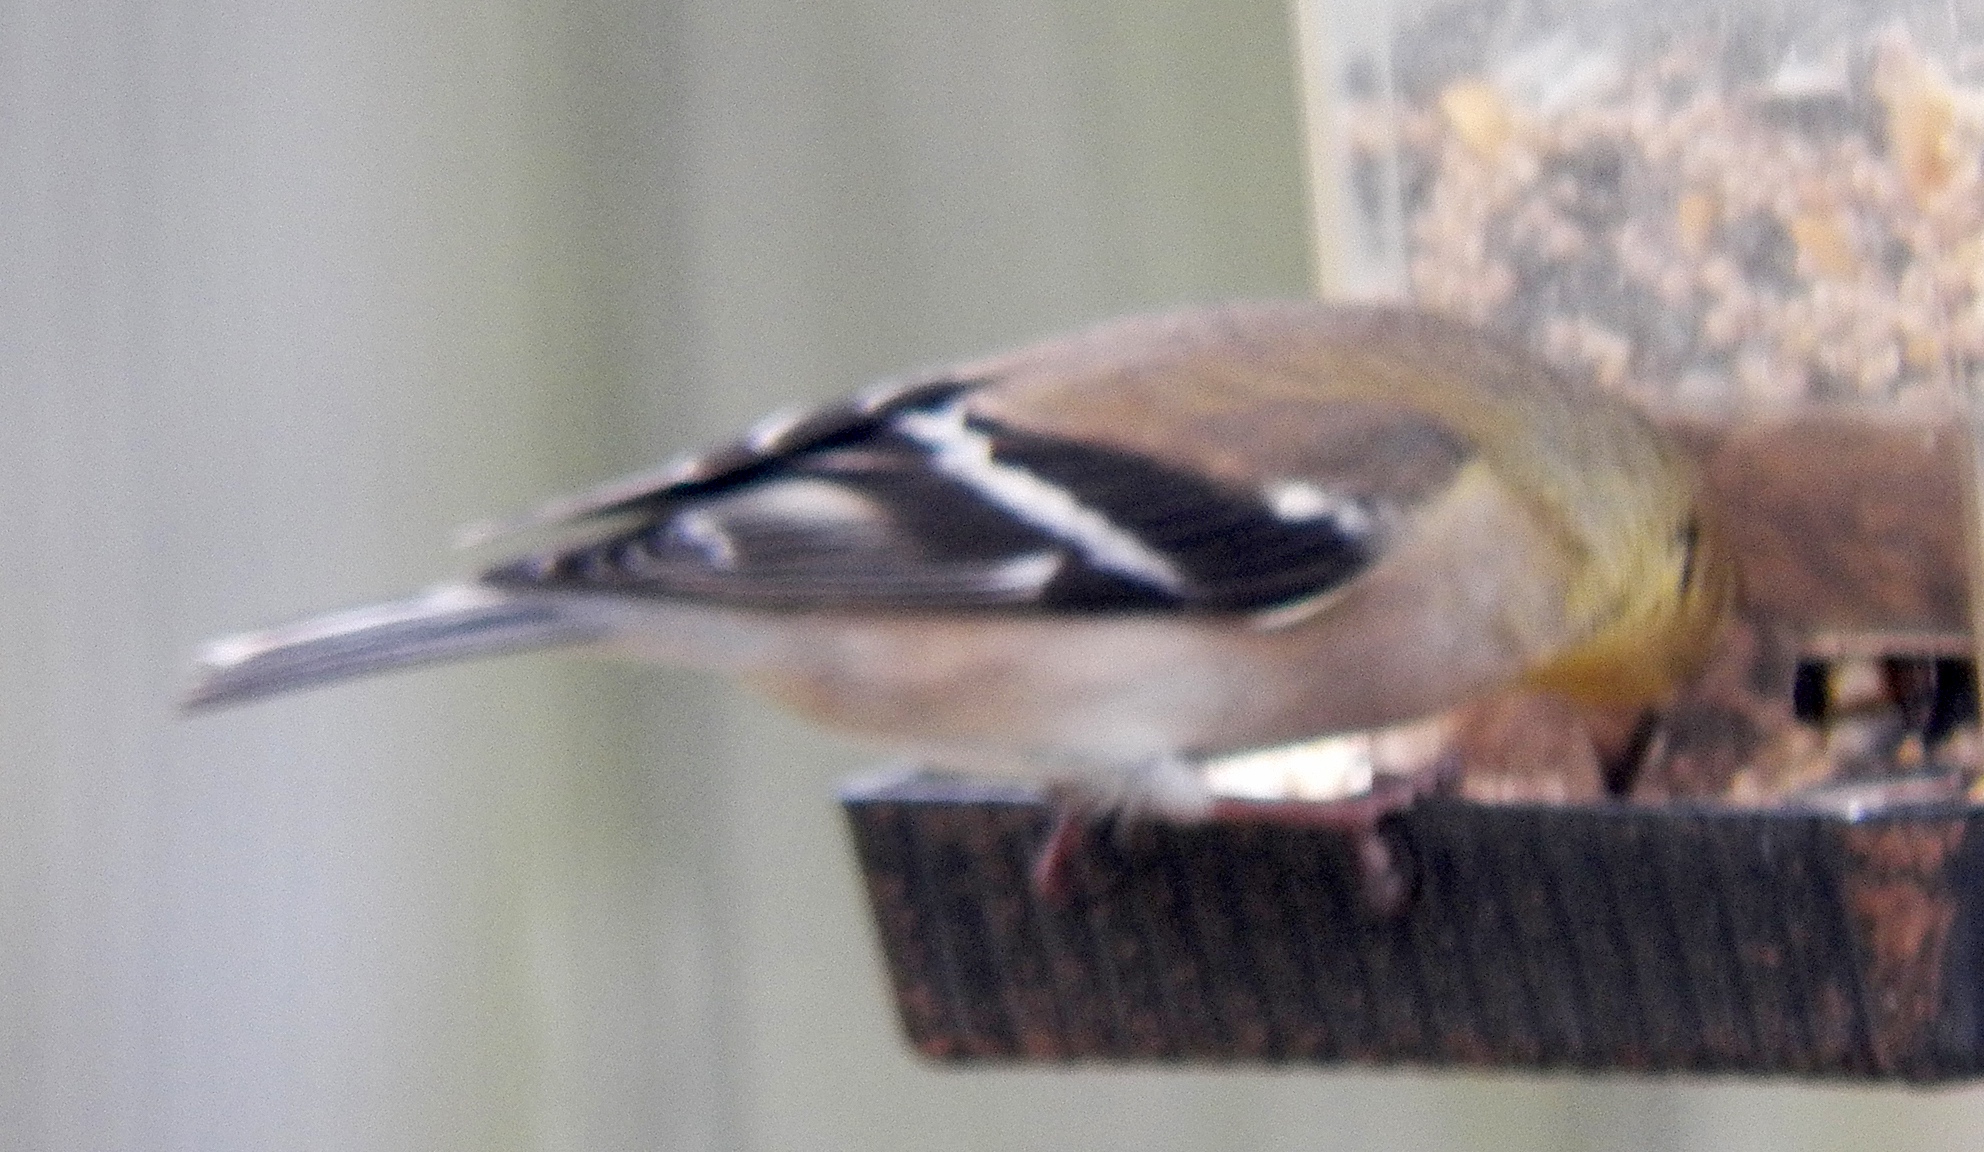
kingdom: Animalia
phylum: Chordata
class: Aves
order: Passeriformes
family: Fringillidae
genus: Spinus
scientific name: Spinus tristis
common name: American goldfinch
